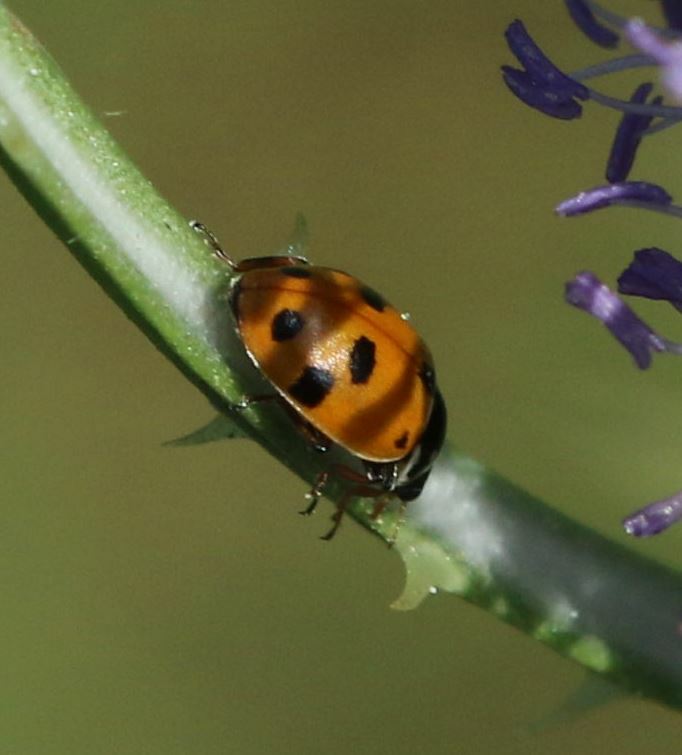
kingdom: Animalia
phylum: Arthropoda
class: Insecta
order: Coleoptera
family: Coccinellidae
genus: Hippodamia
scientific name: Hippodamia variegata
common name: Ladybird beetle
